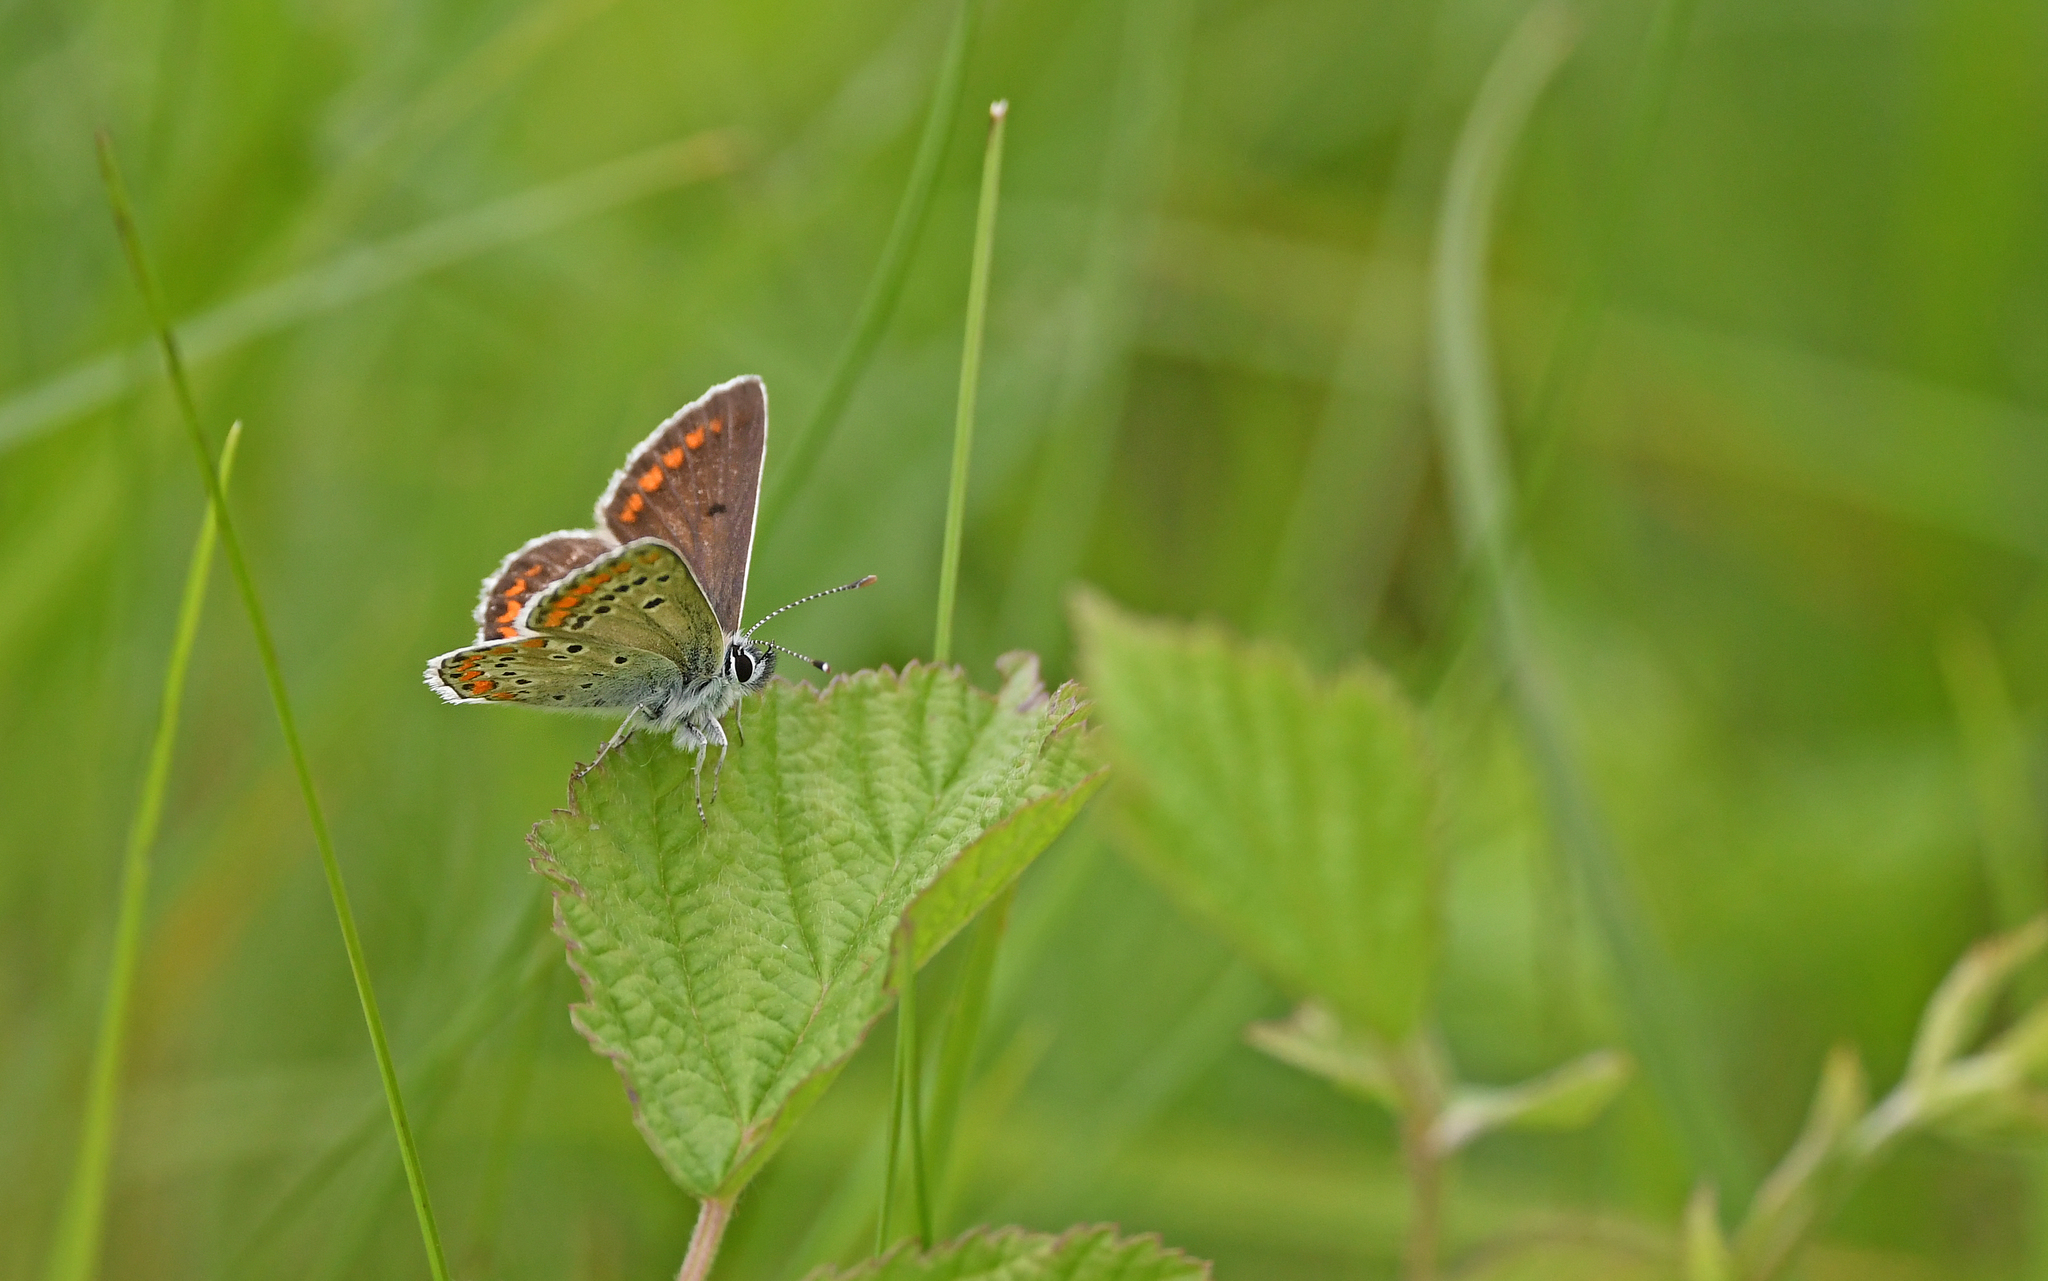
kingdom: Animalia
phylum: Arthropoda
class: Insecta
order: Lepidoptera
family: Lycaenidae
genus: Aricia
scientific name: Aricia agestis
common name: Brown argus
